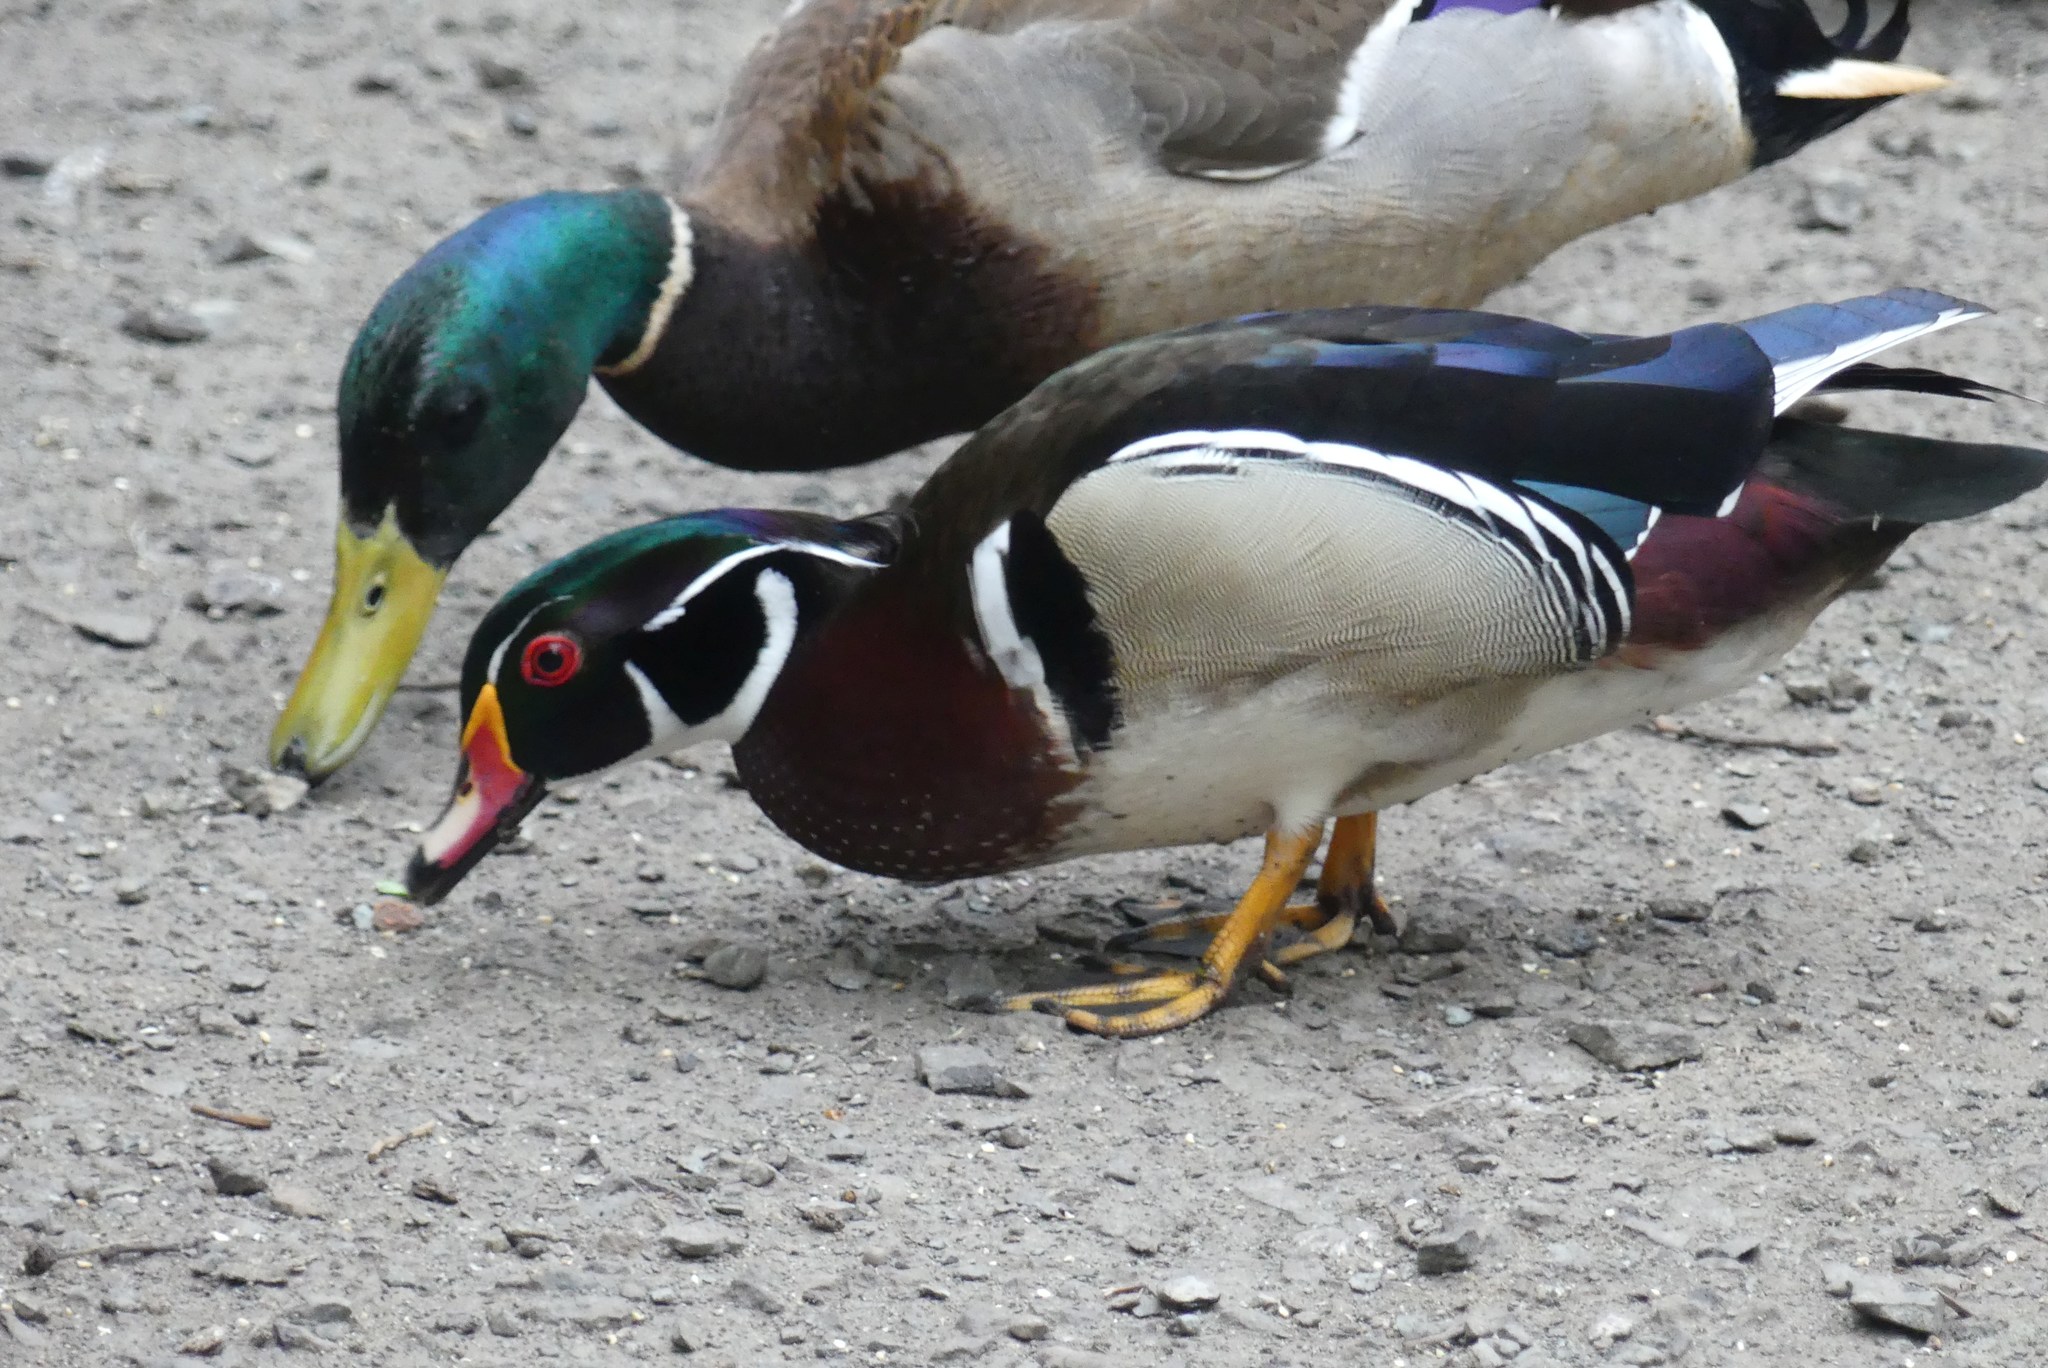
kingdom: Animalia
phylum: Chordata
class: Aves
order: Anseriformes
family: Anatidae
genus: Aix
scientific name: Aix sponsa
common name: Wood duck
